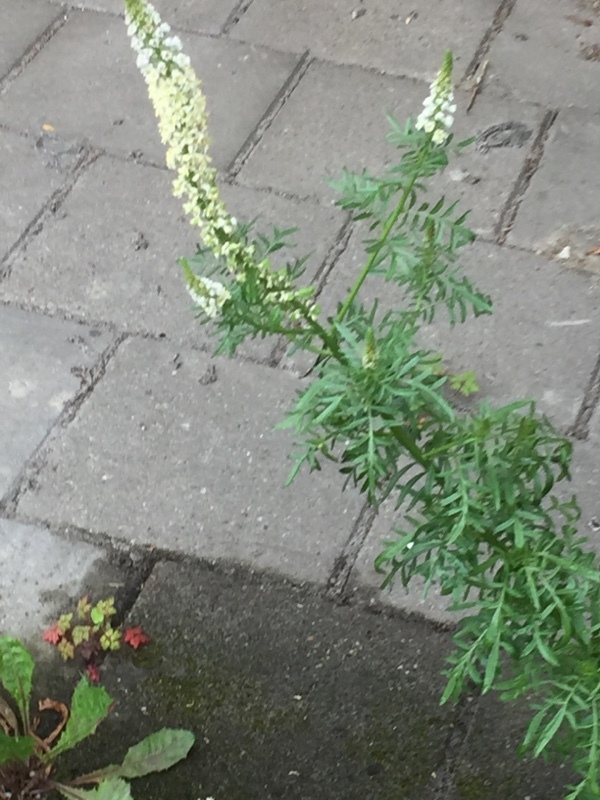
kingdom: Plantae
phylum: Tracheophyta
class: Magnoliopsida
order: Brassicales
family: Resedaceae
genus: Reseda
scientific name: Reseda alba
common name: White mignonette
